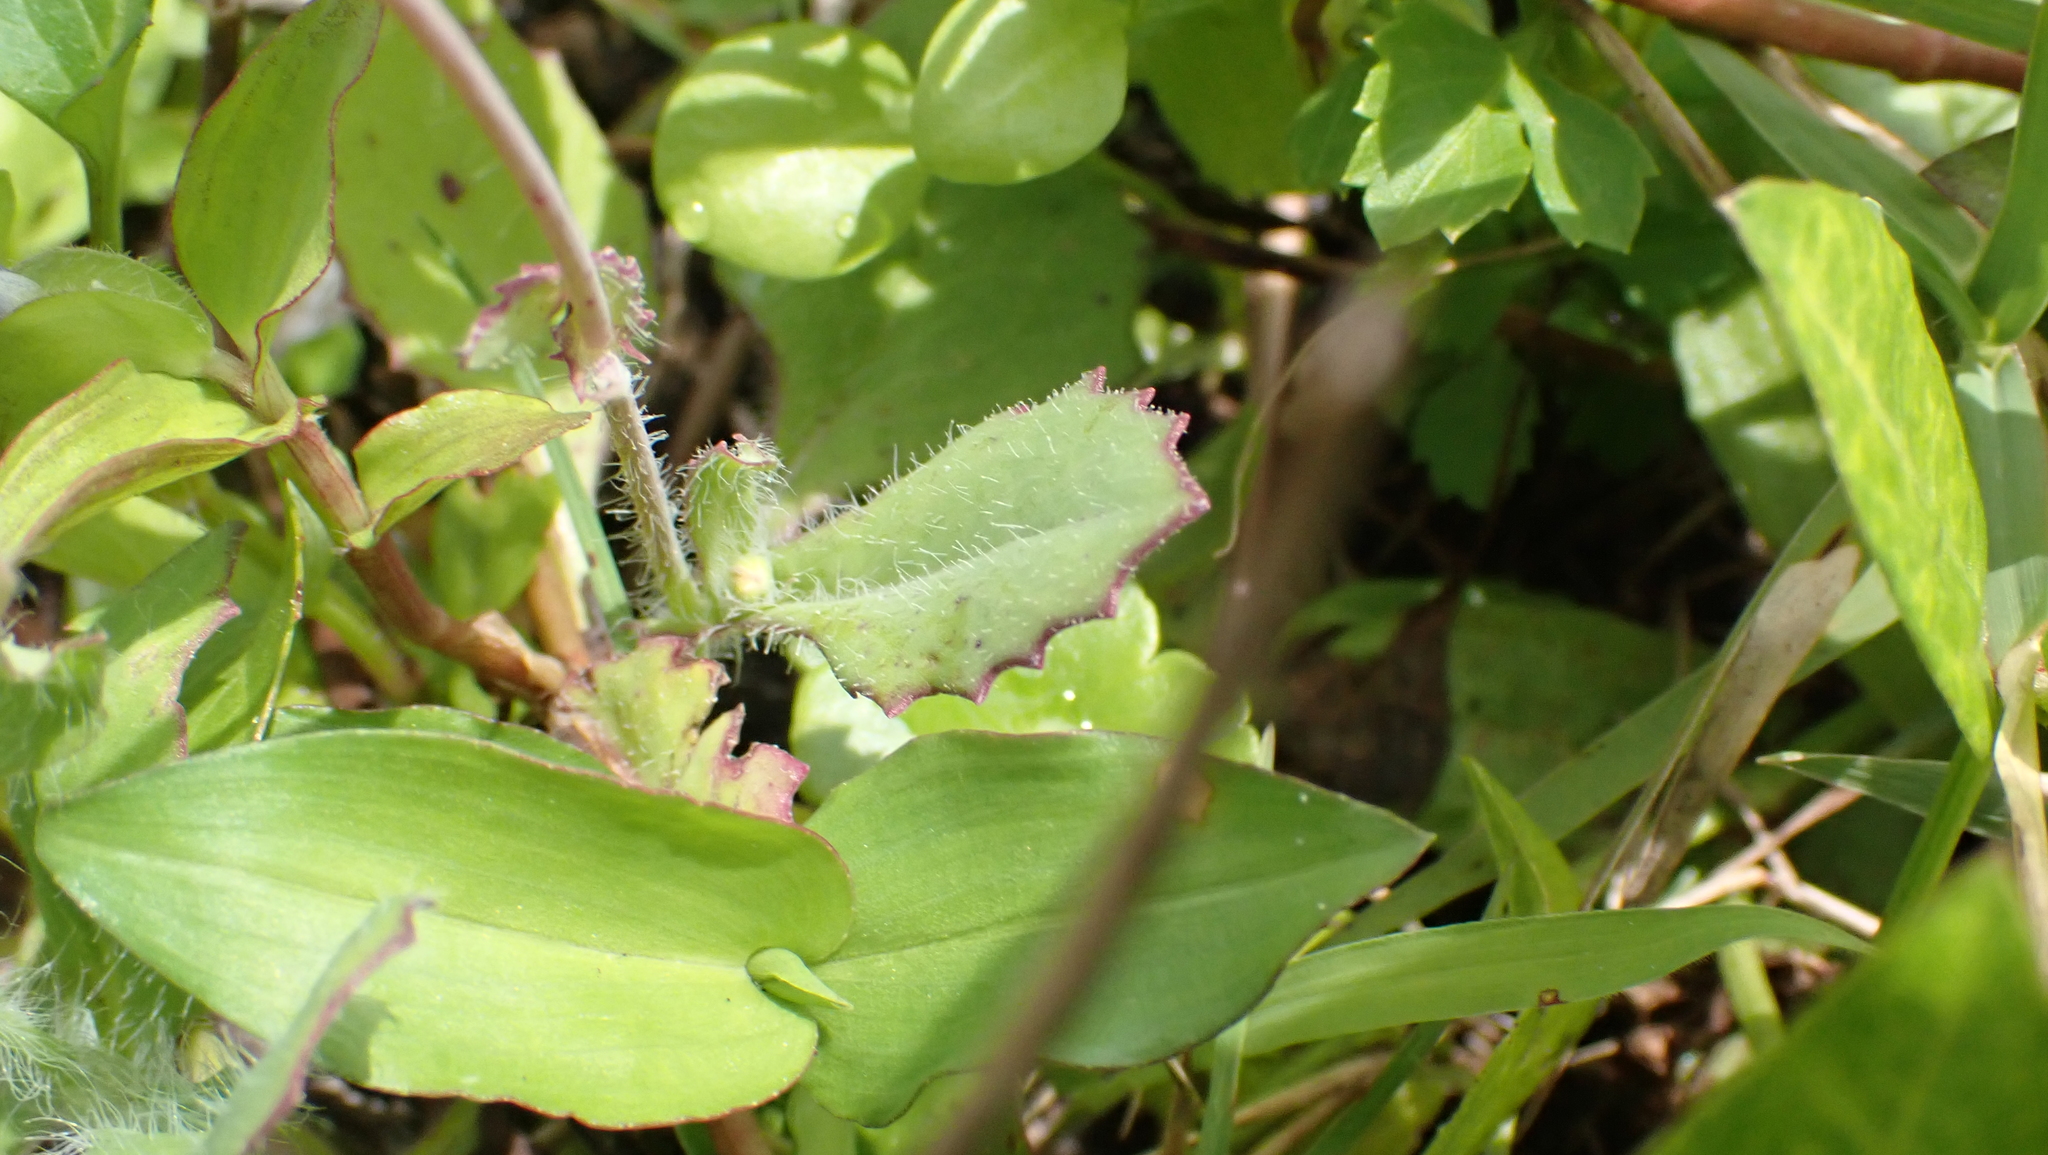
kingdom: Plantae
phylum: Tracheophyta
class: Magnoliopsida
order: Asterales
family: Asteraceae
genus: Emilia
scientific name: Emilia fosbergii
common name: Florida tasselflower
